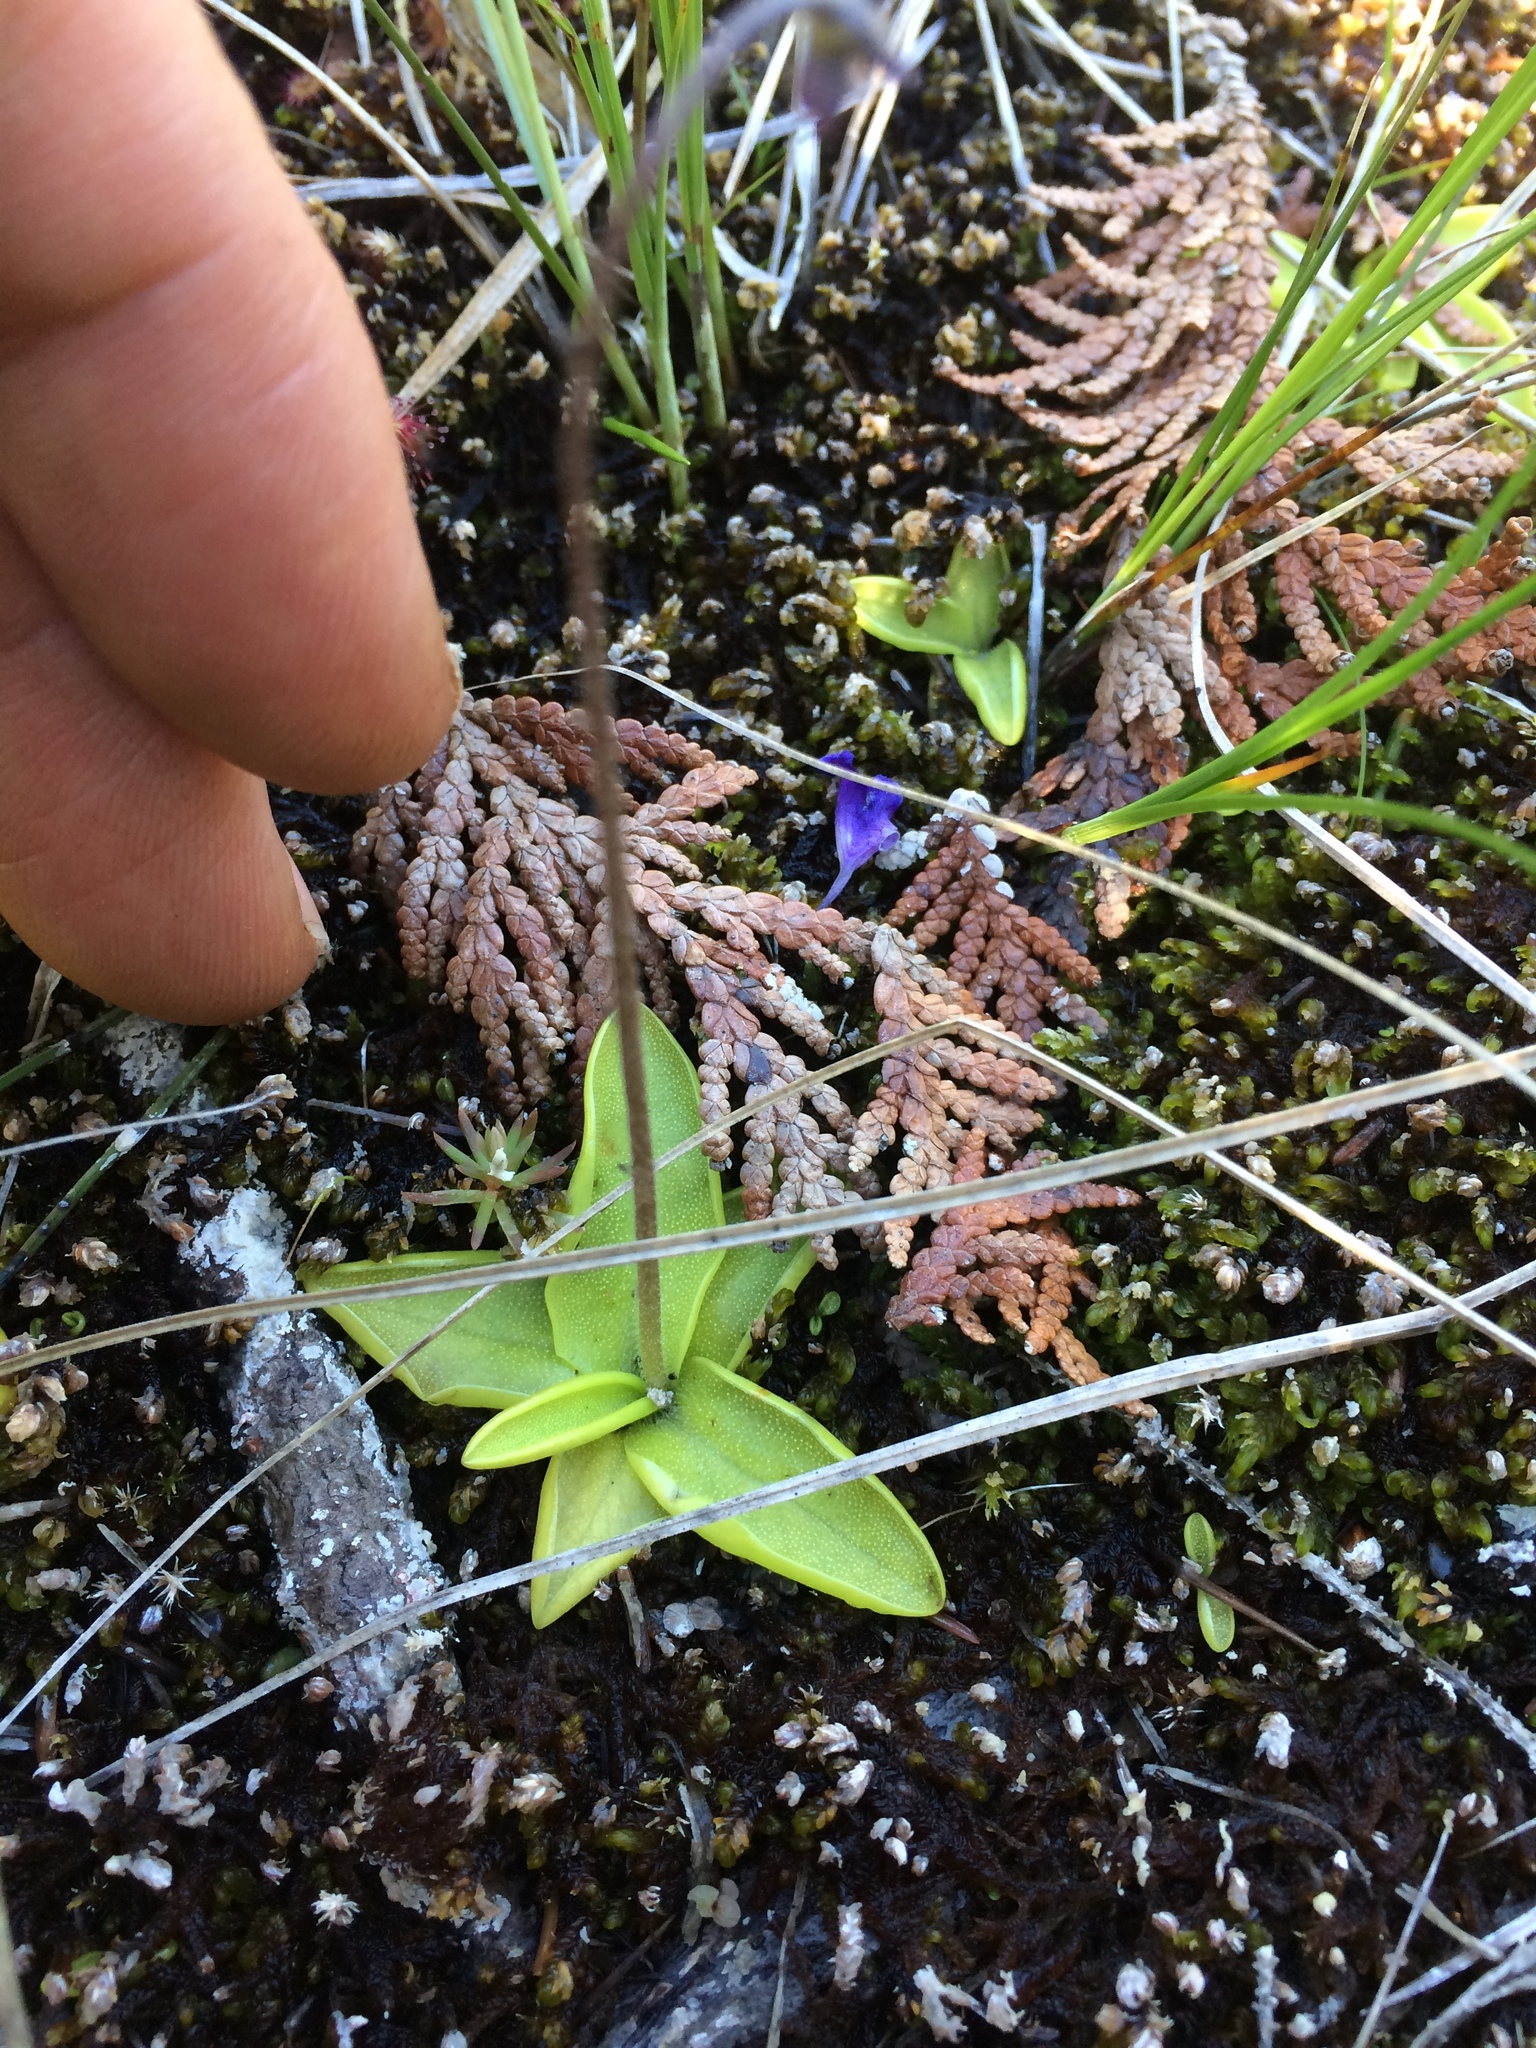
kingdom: Plantae
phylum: Tracheophyta
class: Magnoliopsida
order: Lamiales
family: Lentibulariaceae
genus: Pinguicula
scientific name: Pinguicula vulgaris
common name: Common butterwort
